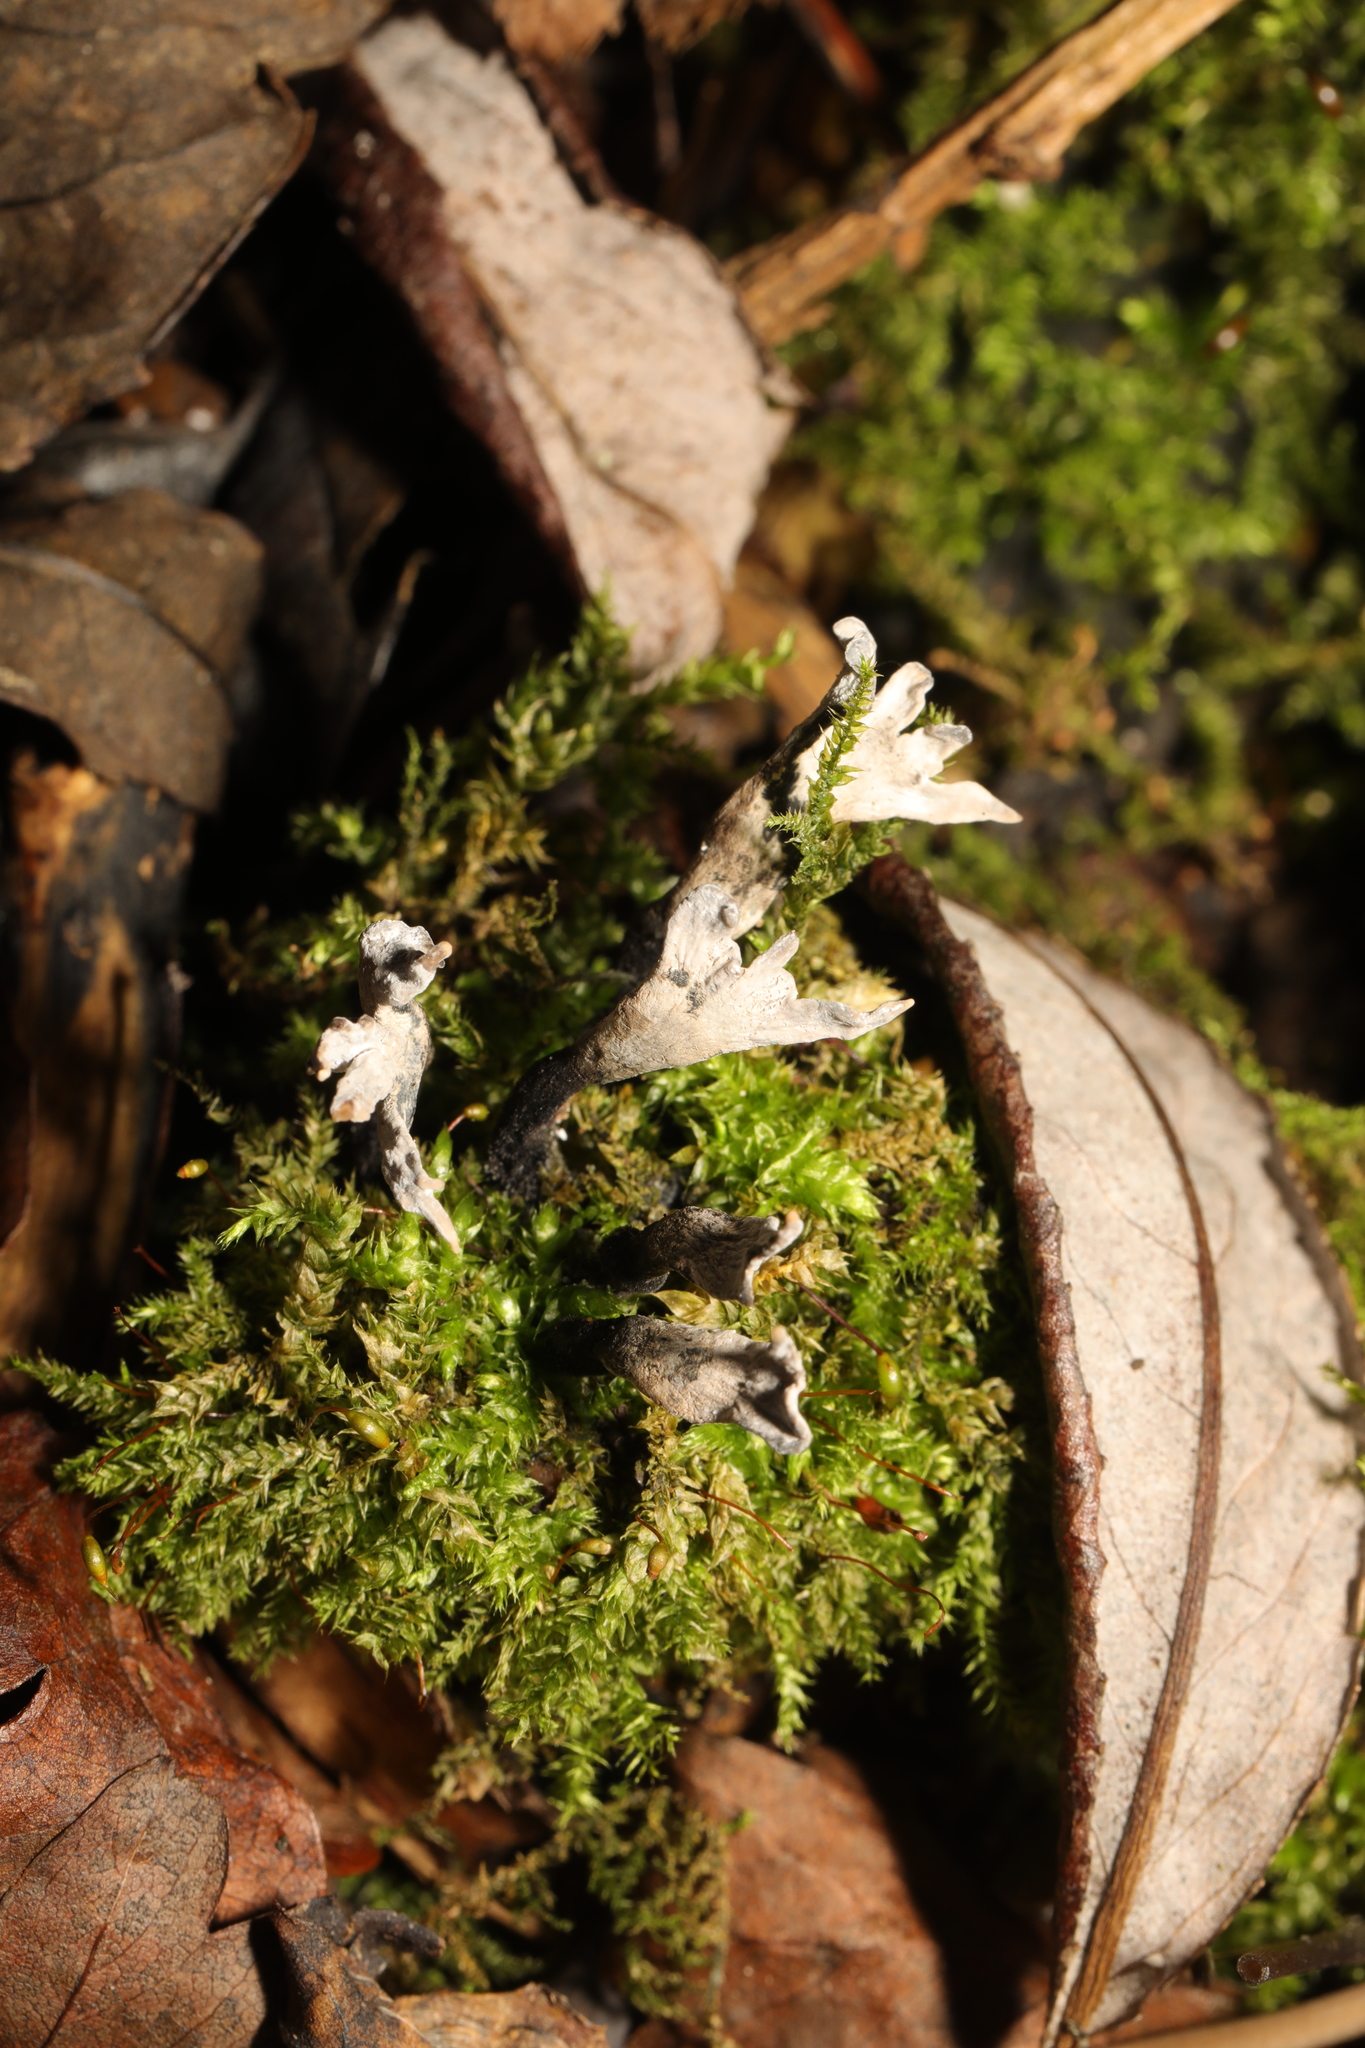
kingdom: Fungi
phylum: Ascomycota
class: Sordariomycetes
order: Xylariales
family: Xylariaceae
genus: Xylaria
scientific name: Xylaria hypoxylon
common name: Candle-snuff fungus
